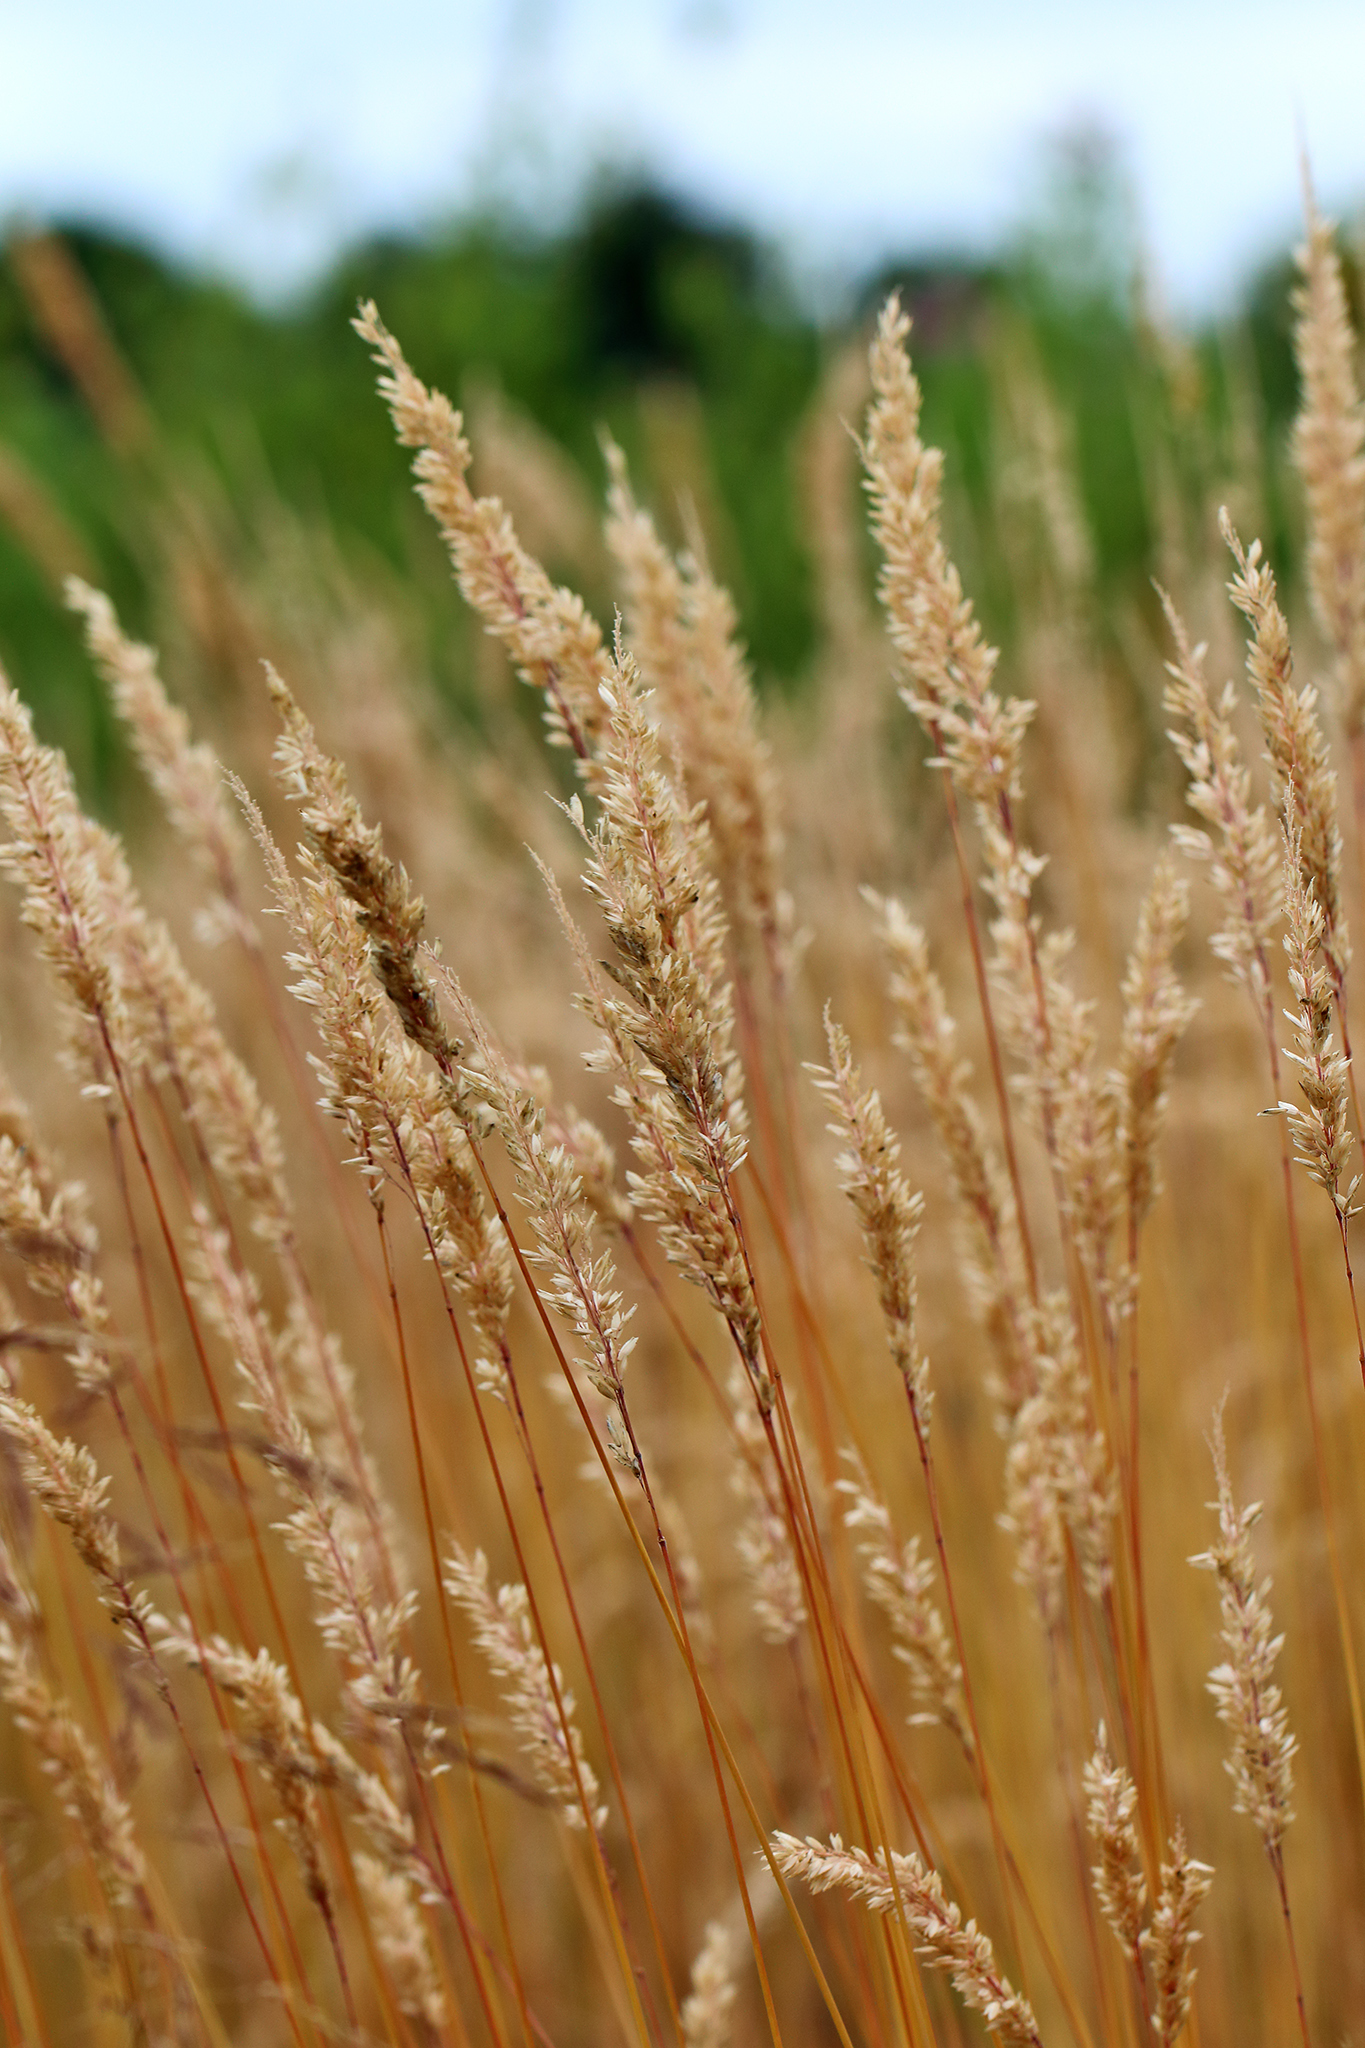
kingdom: Plantae
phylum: Tracheophyta
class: Liliopsida
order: Poales
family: Poaceae
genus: Holcus
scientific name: Holcus lanatus
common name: Yorkshire-fog
